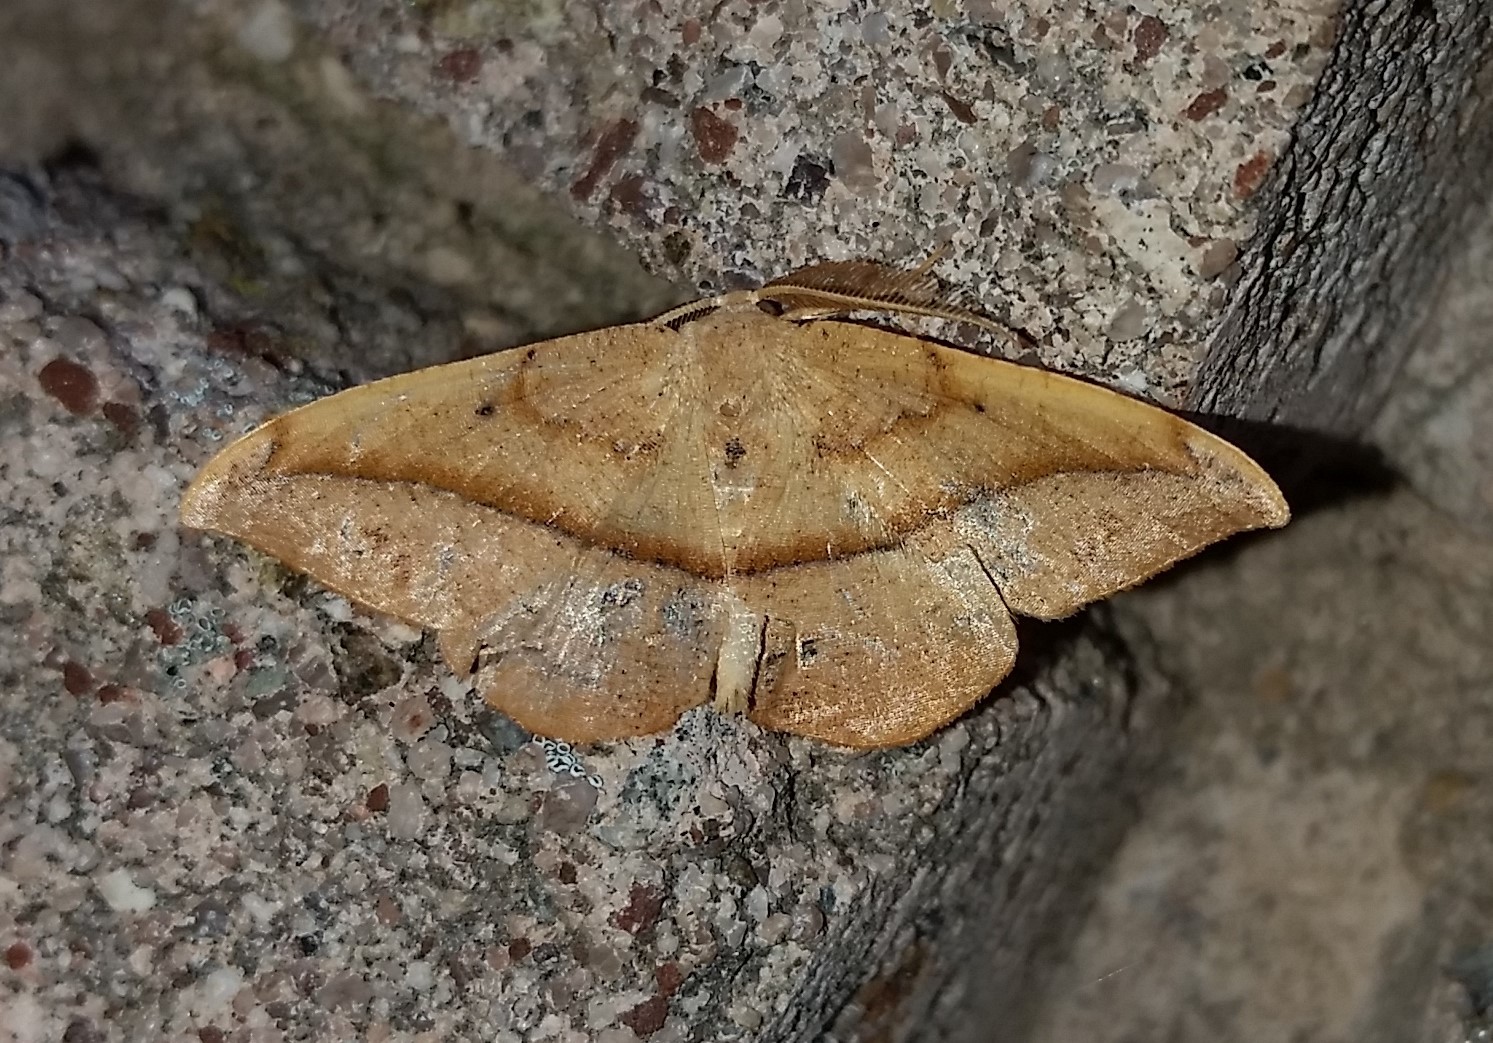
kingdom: Animalia
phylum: Arthropoda
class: Insecta
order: Lepidoptera
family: Geometridae
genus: Patalene
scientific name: Patalene olyzonaria
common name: Juniper geometer moth
